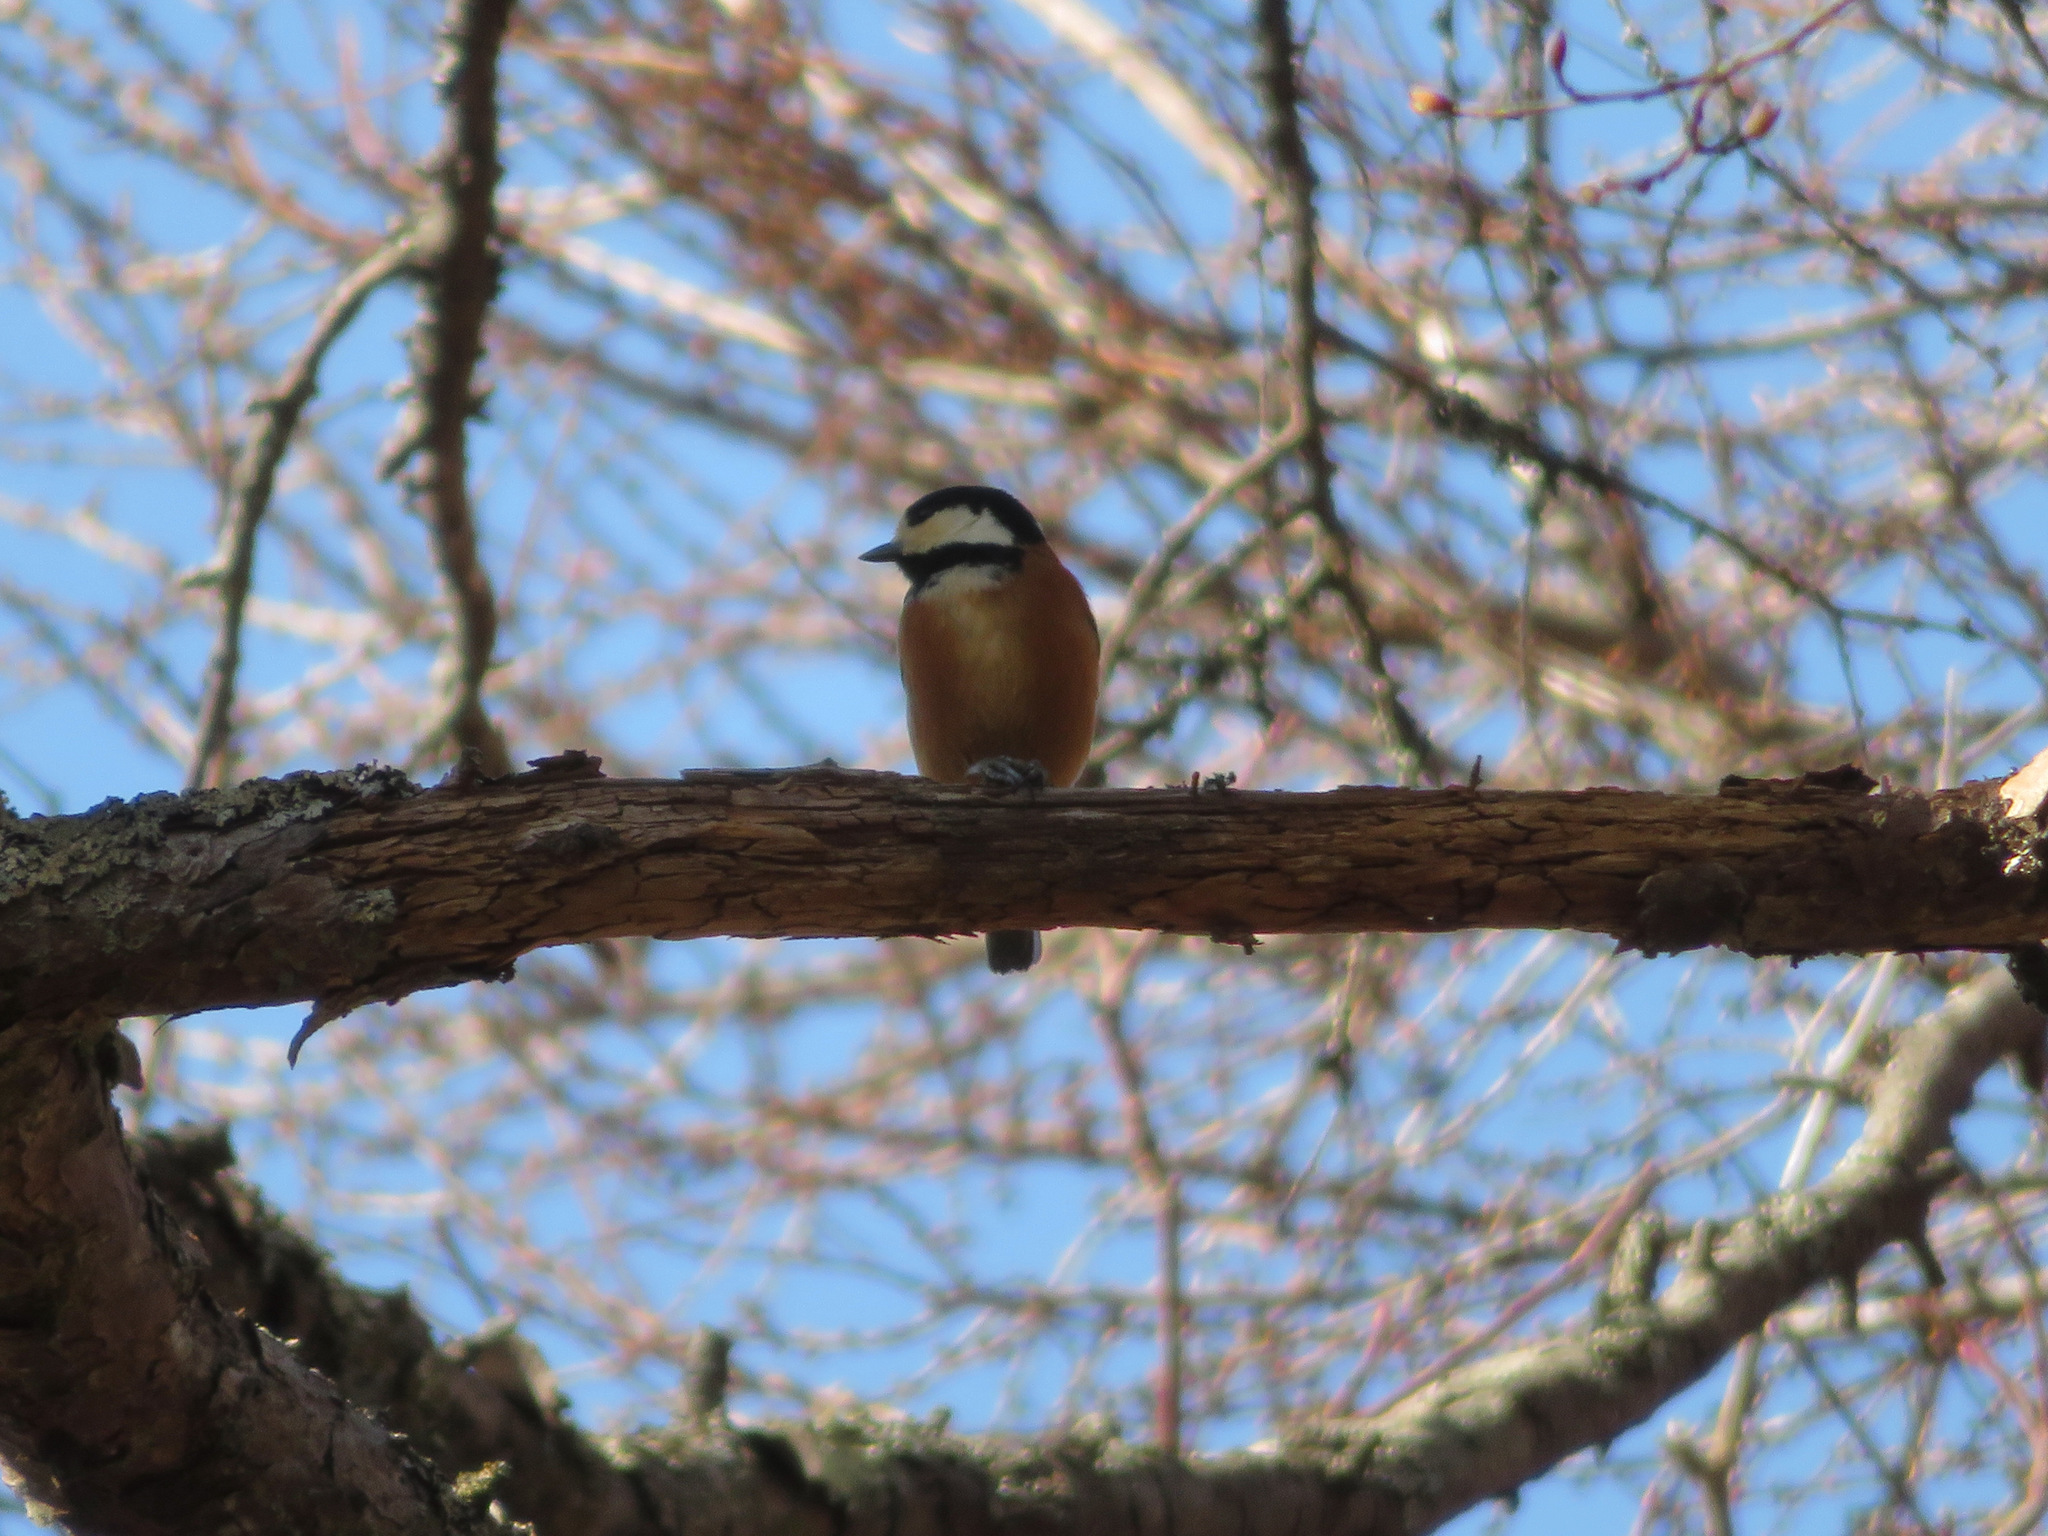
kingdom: Animalia
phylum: Chordata
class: Aves
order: Passeriformes
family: Paridae
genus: Poecile
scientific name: Poecile varius
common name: Varied tit
